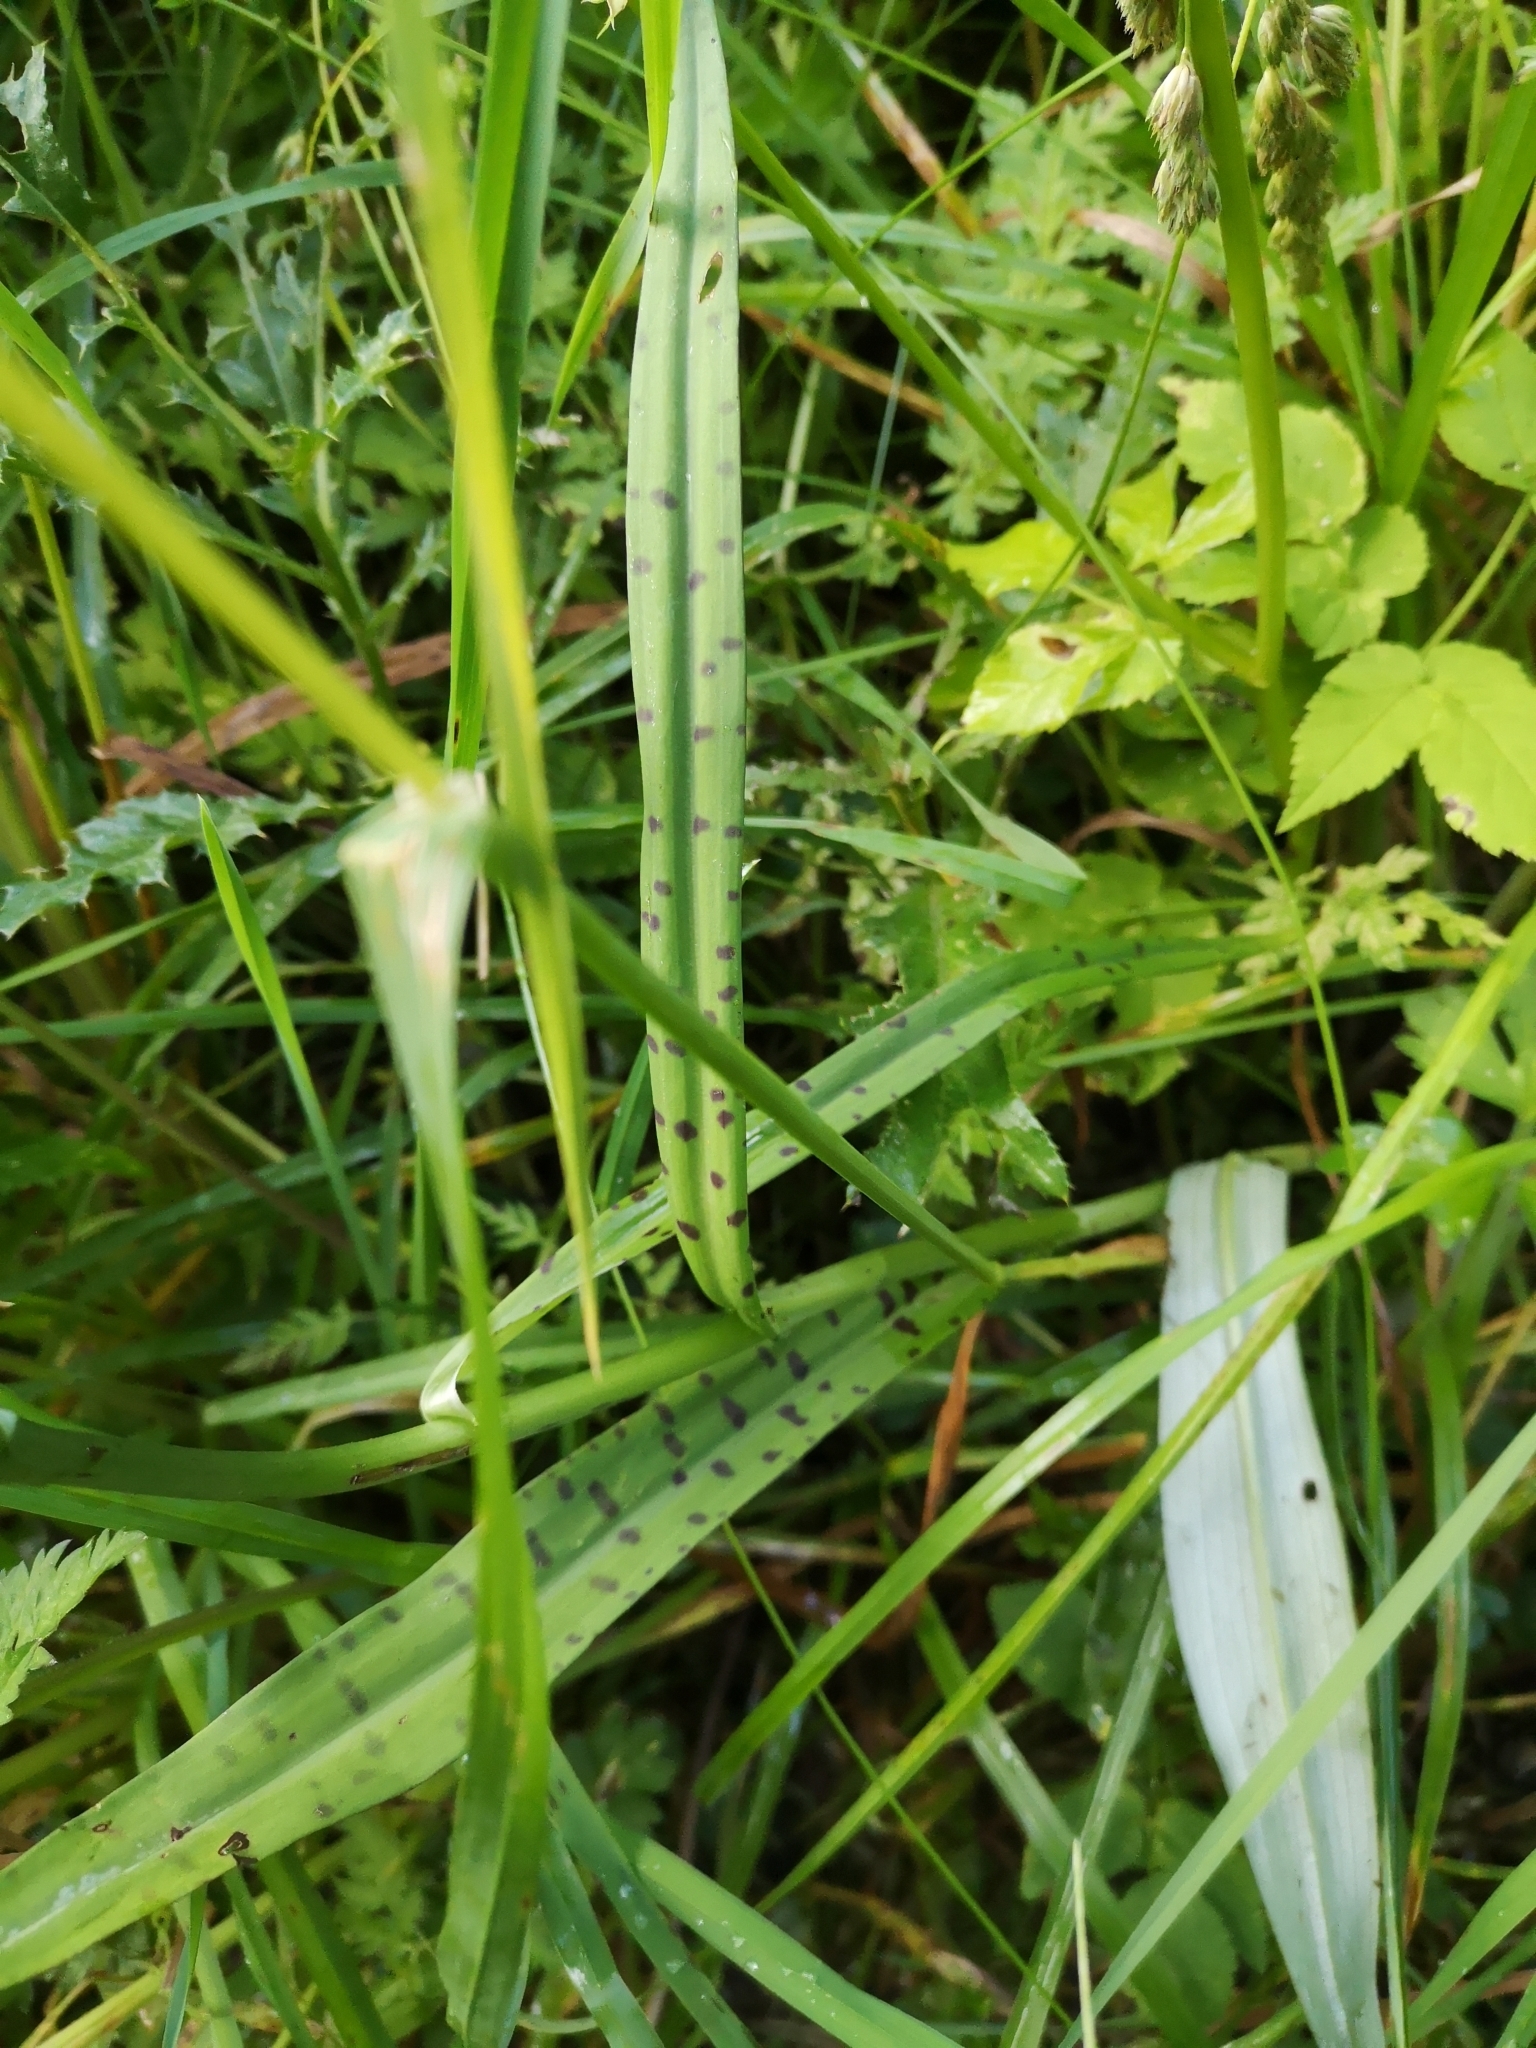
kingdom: Plantae
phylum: Tracheophyta
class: Liliopsida
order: Asparagales
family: Orchidaceae
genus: Dactylorhiza
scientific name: Dactylorhiza maculata
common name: Heath spotted-orchid
